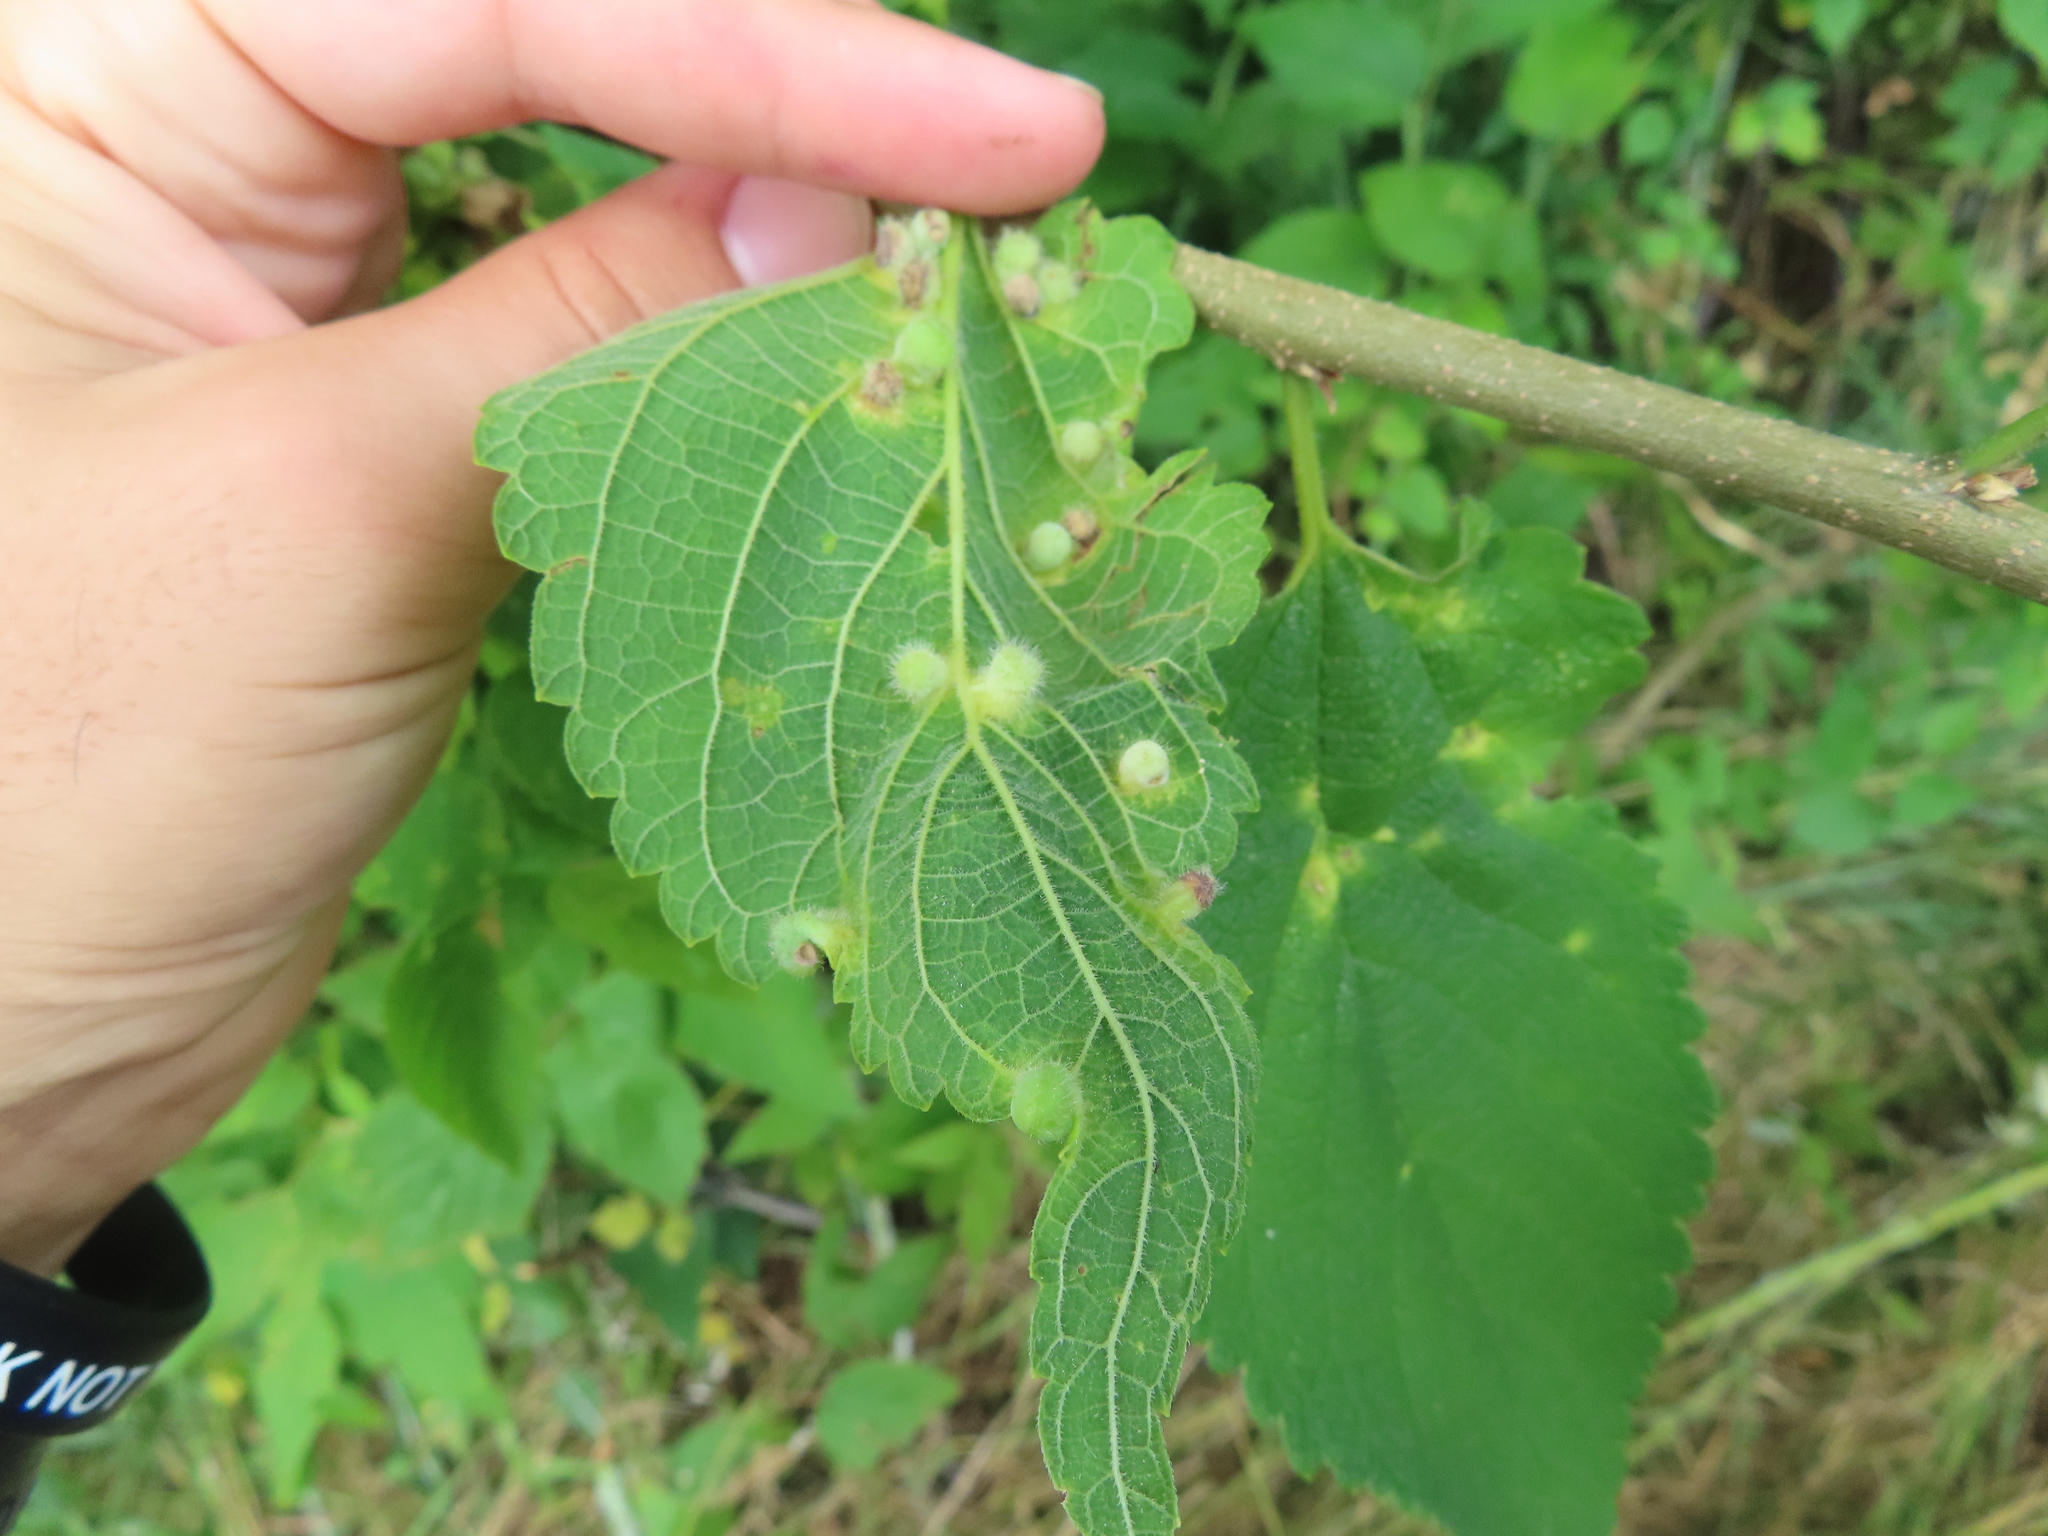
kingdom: Animalia
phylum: Arthropoda
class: Insecta
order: Hemiptera
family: Aphalaridae
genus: Pachypsylla
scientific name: Pachypsylla celtidismamma
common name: Hackberry nipplegall psyllid
